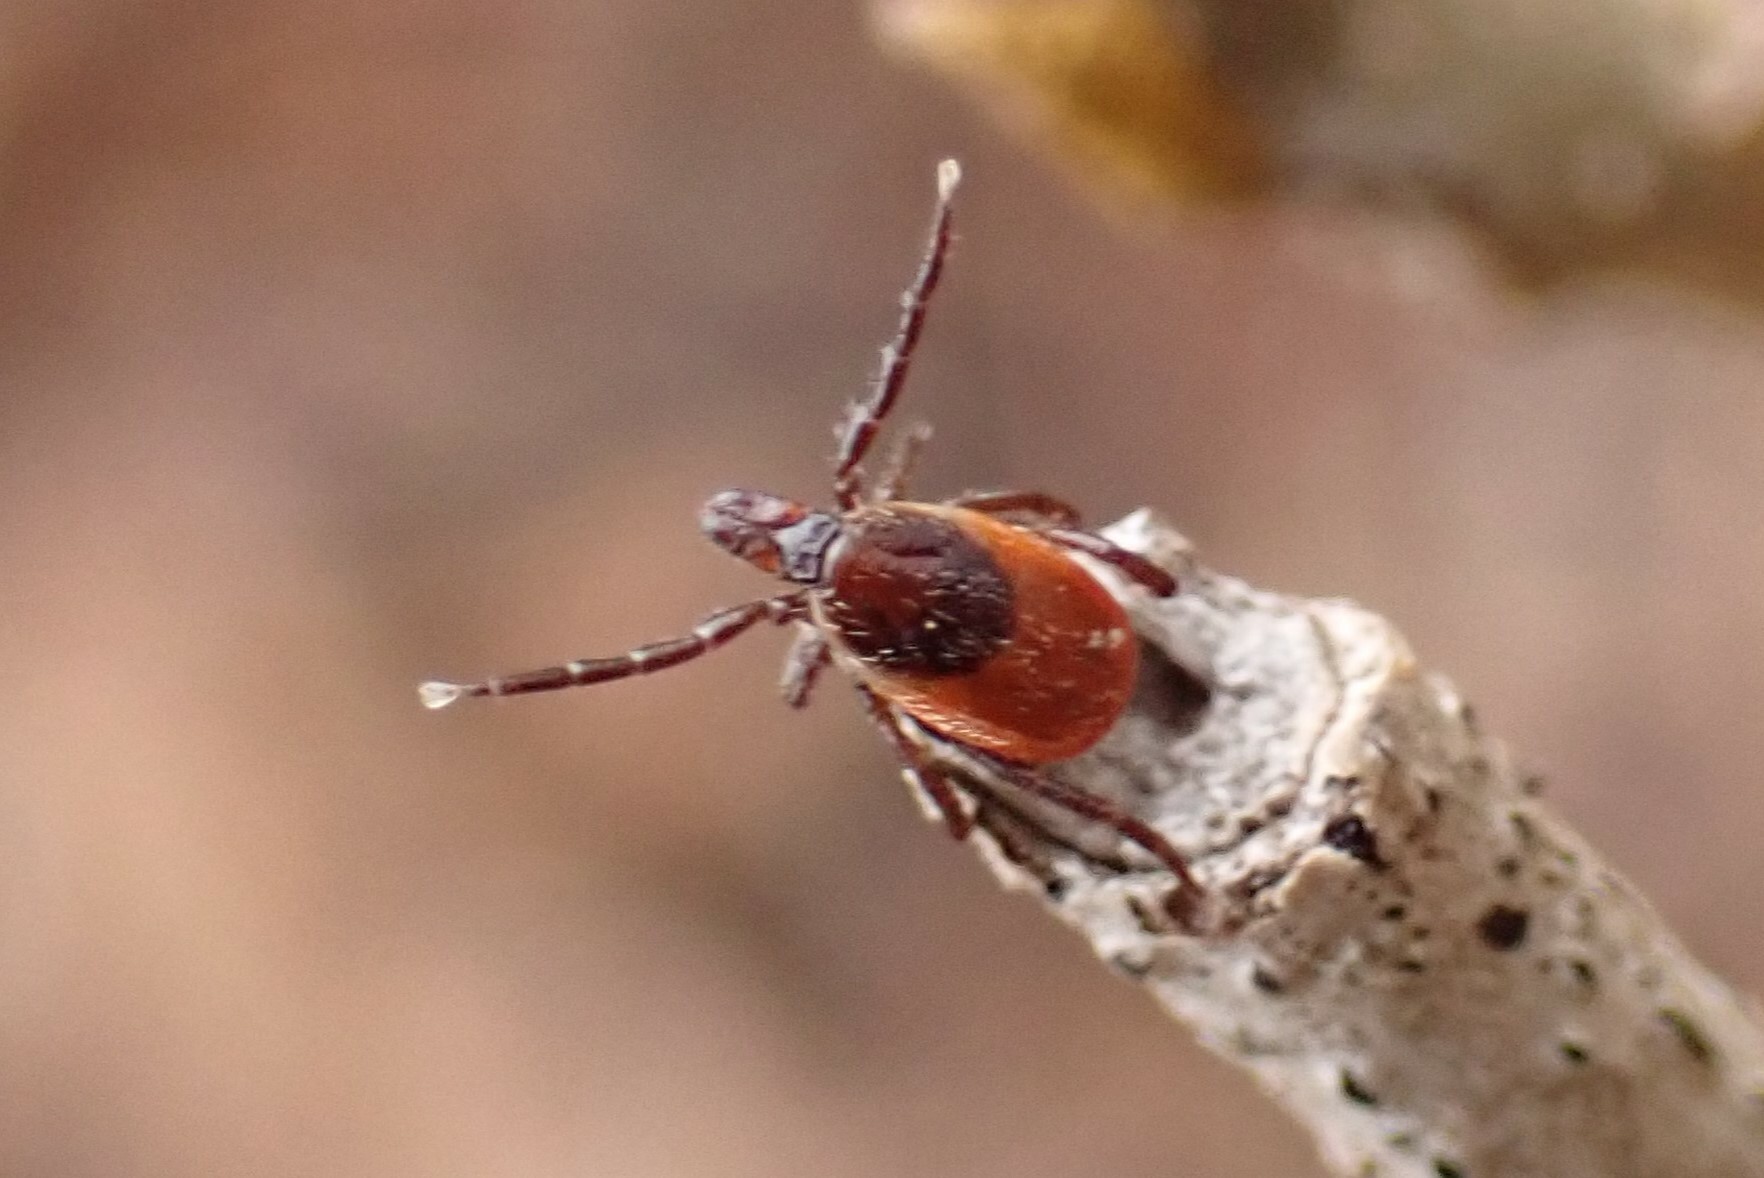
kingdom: Animalia
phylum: Arthropoda
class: Arachnida
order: Ixodida
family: Ixodidae
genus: Ixodes
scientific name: Ixodes scapularis
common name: Black legged tick
